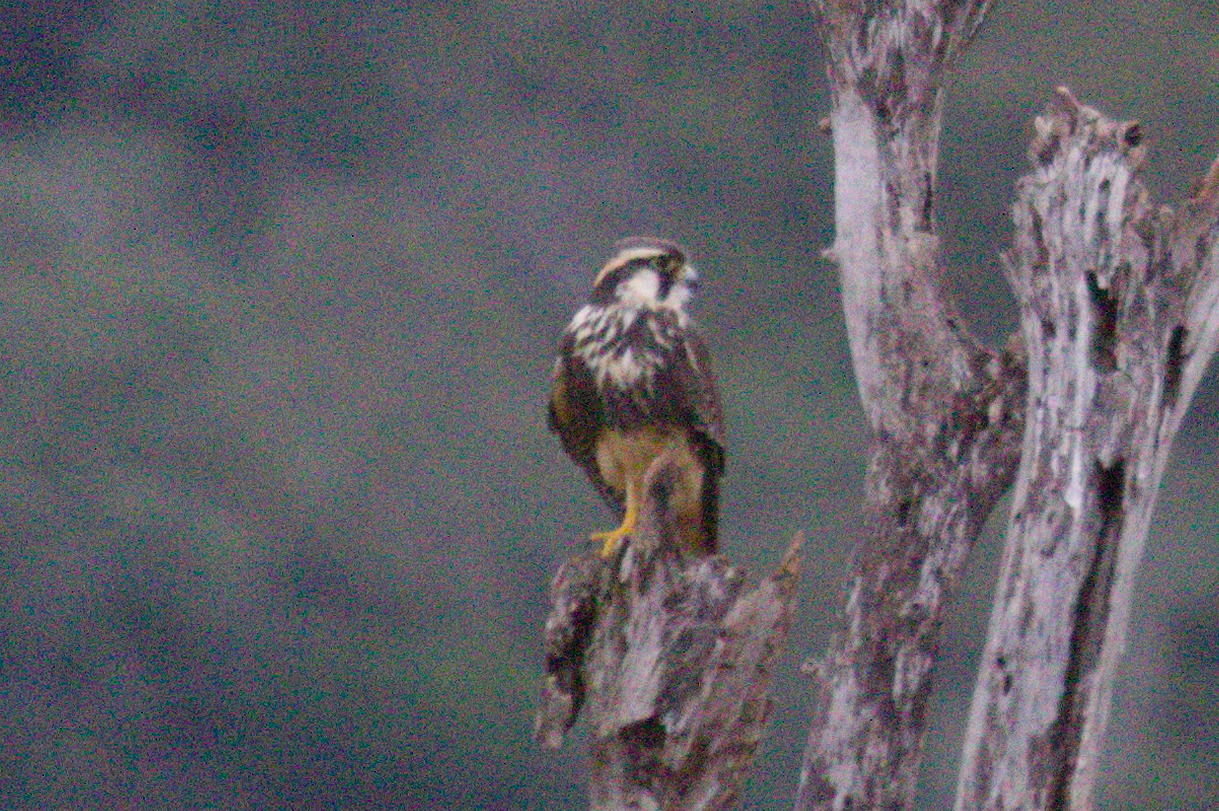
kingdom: Animalia
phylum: Chordata
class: Aves
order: Falconiformes
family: Falconidae
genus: Falco
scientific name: Falco femoralis
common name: Aplomado falcon
